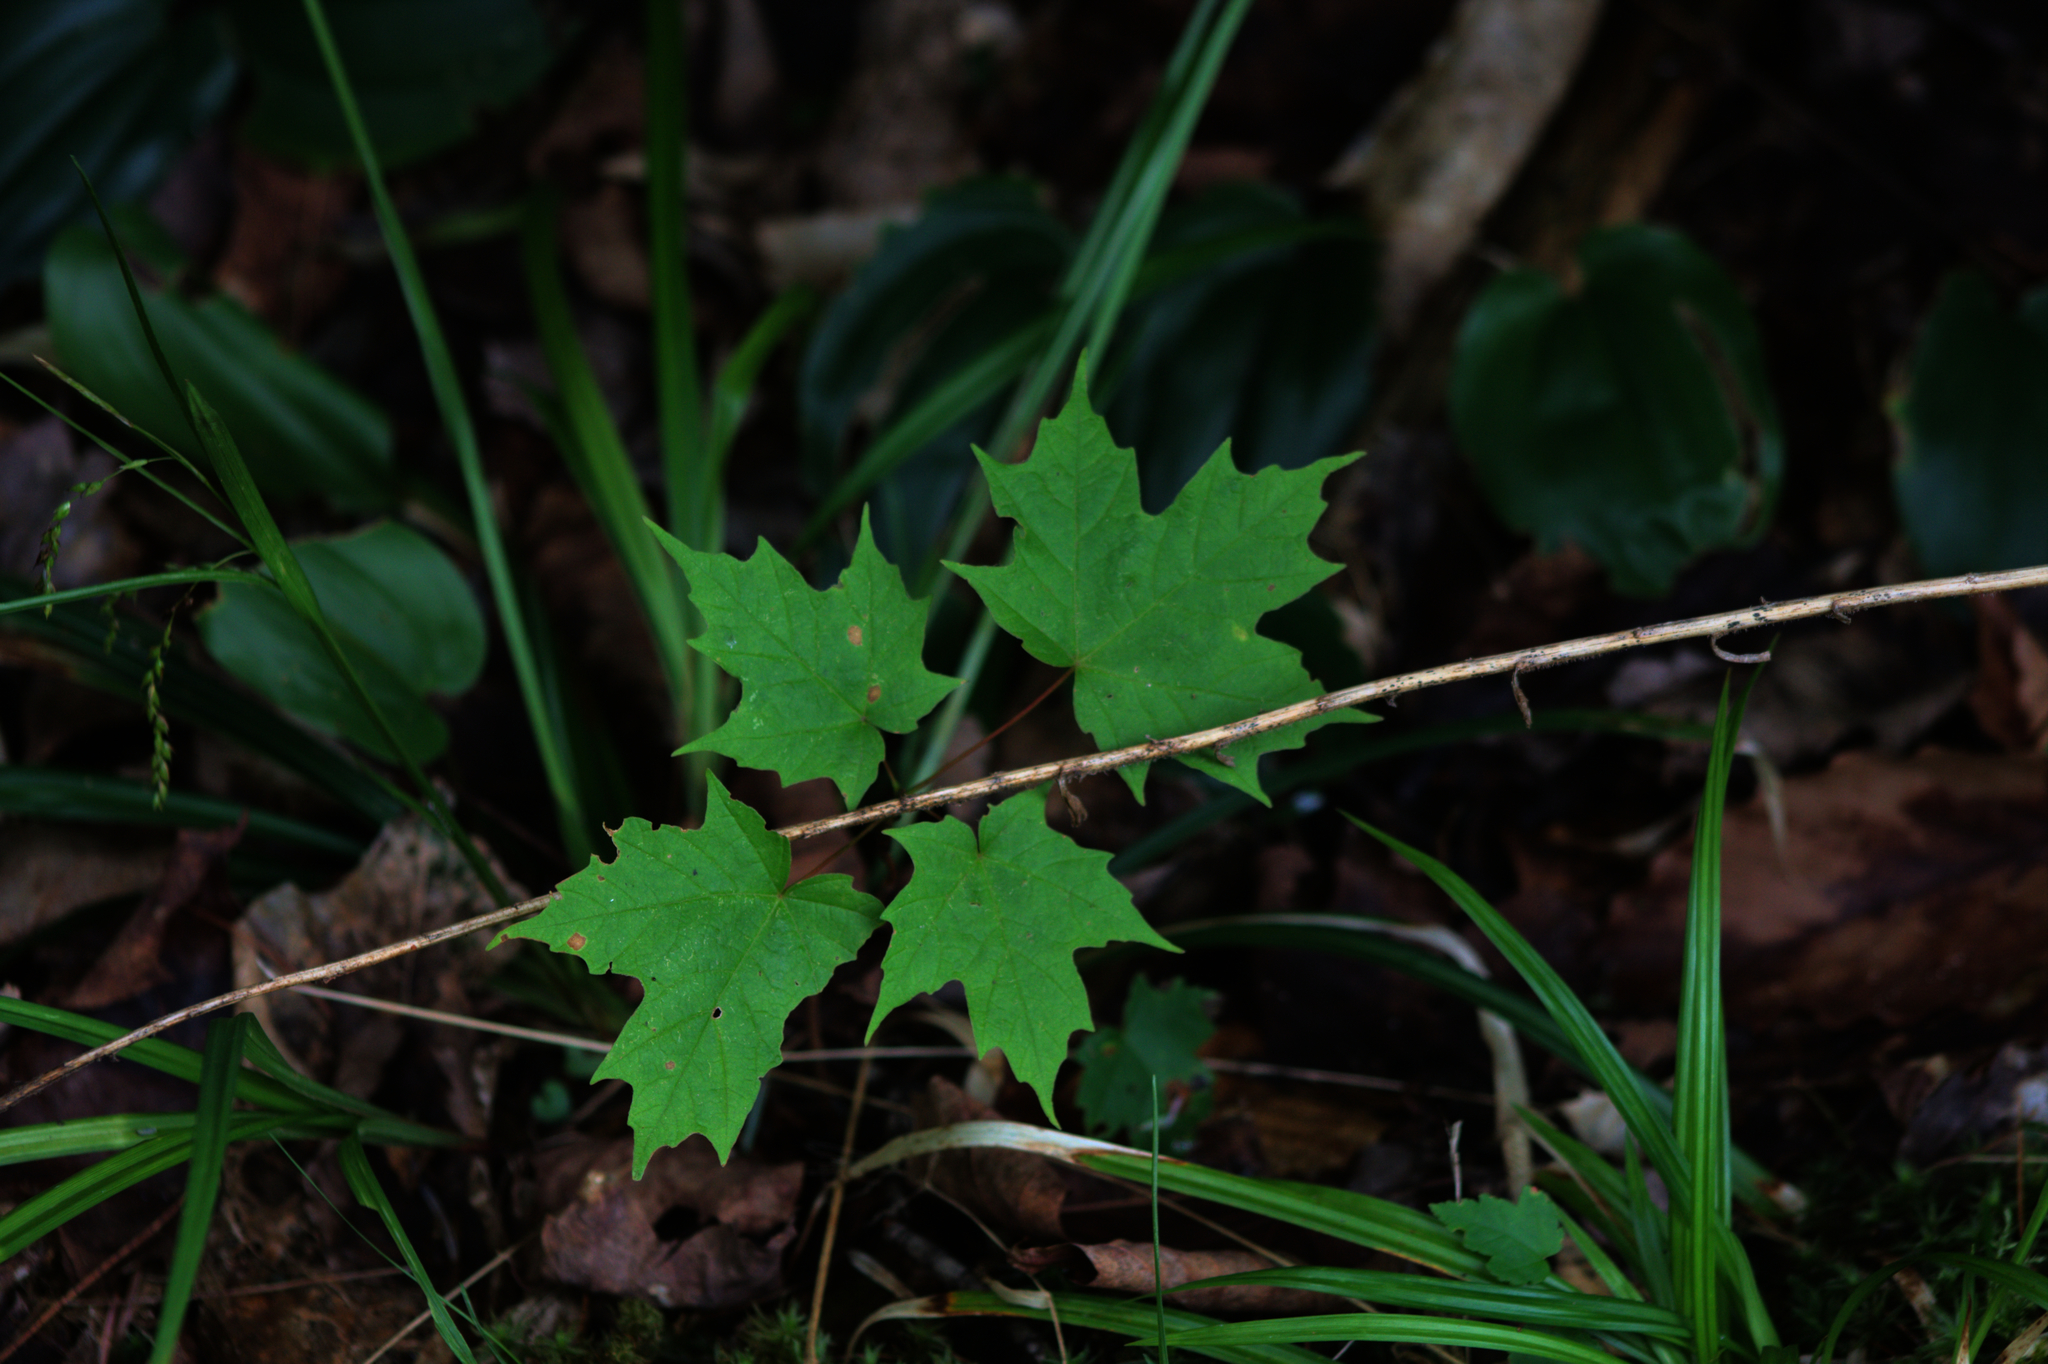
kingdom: Plantae
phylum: Tracheophyta
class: Magnoliopsida
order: Sapindales
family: Sapindaceae
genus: Acer
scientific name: Acer saccharum
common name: Sugar maple
